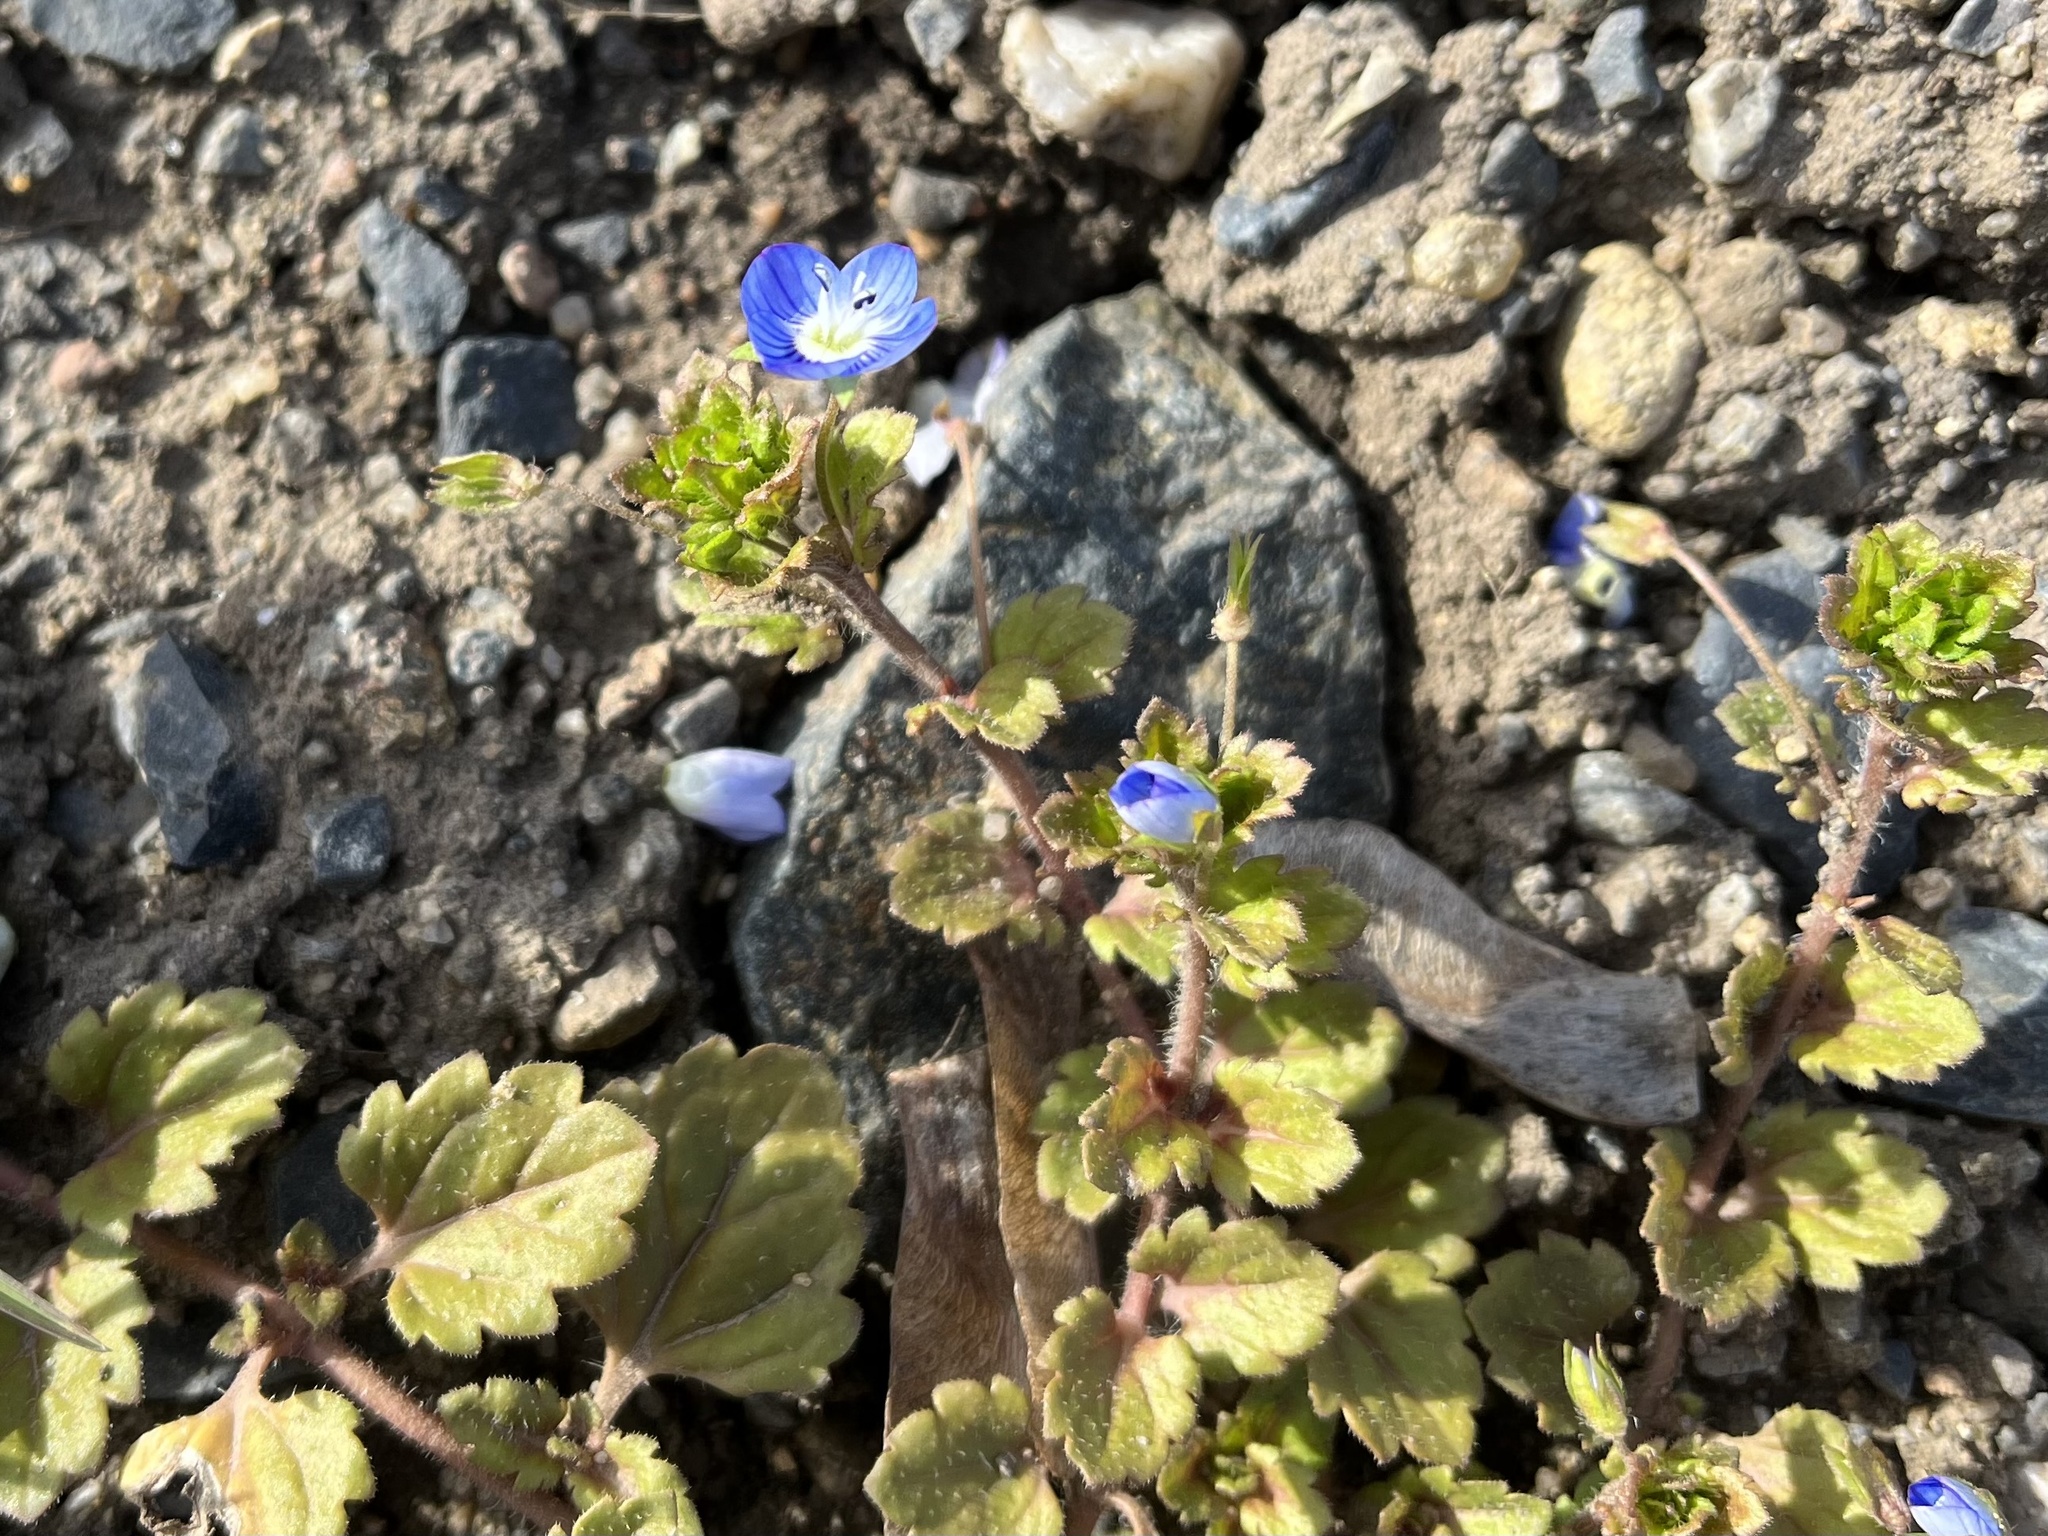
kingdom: Plantae
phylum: Tracheophyta
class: Magnoliopsida
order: Lamiales
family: Plantaginaceae
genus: Veronica
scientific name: Veronica persica
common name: Common field-speedwell
